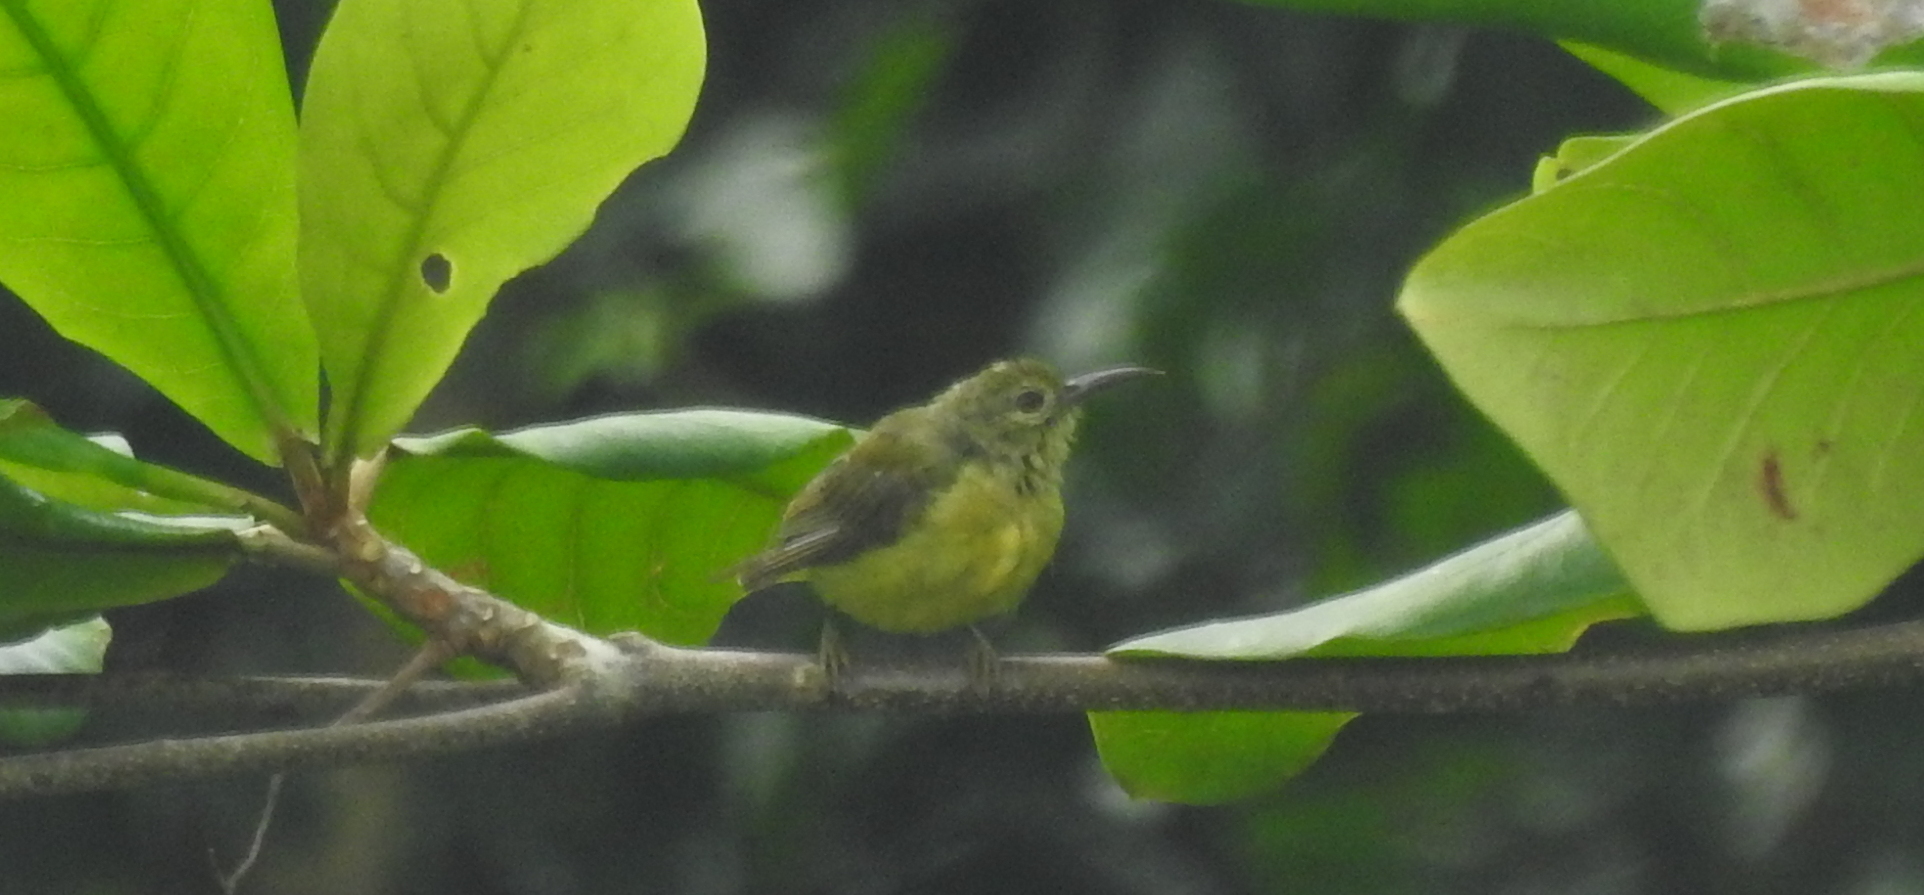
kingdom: Animalia
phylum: Chordata
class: Aves
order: Passeriformes
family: Nectariniidae
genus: Anthreptes
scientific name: Anthreptes malacensis
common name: Brown-throated sunbird
